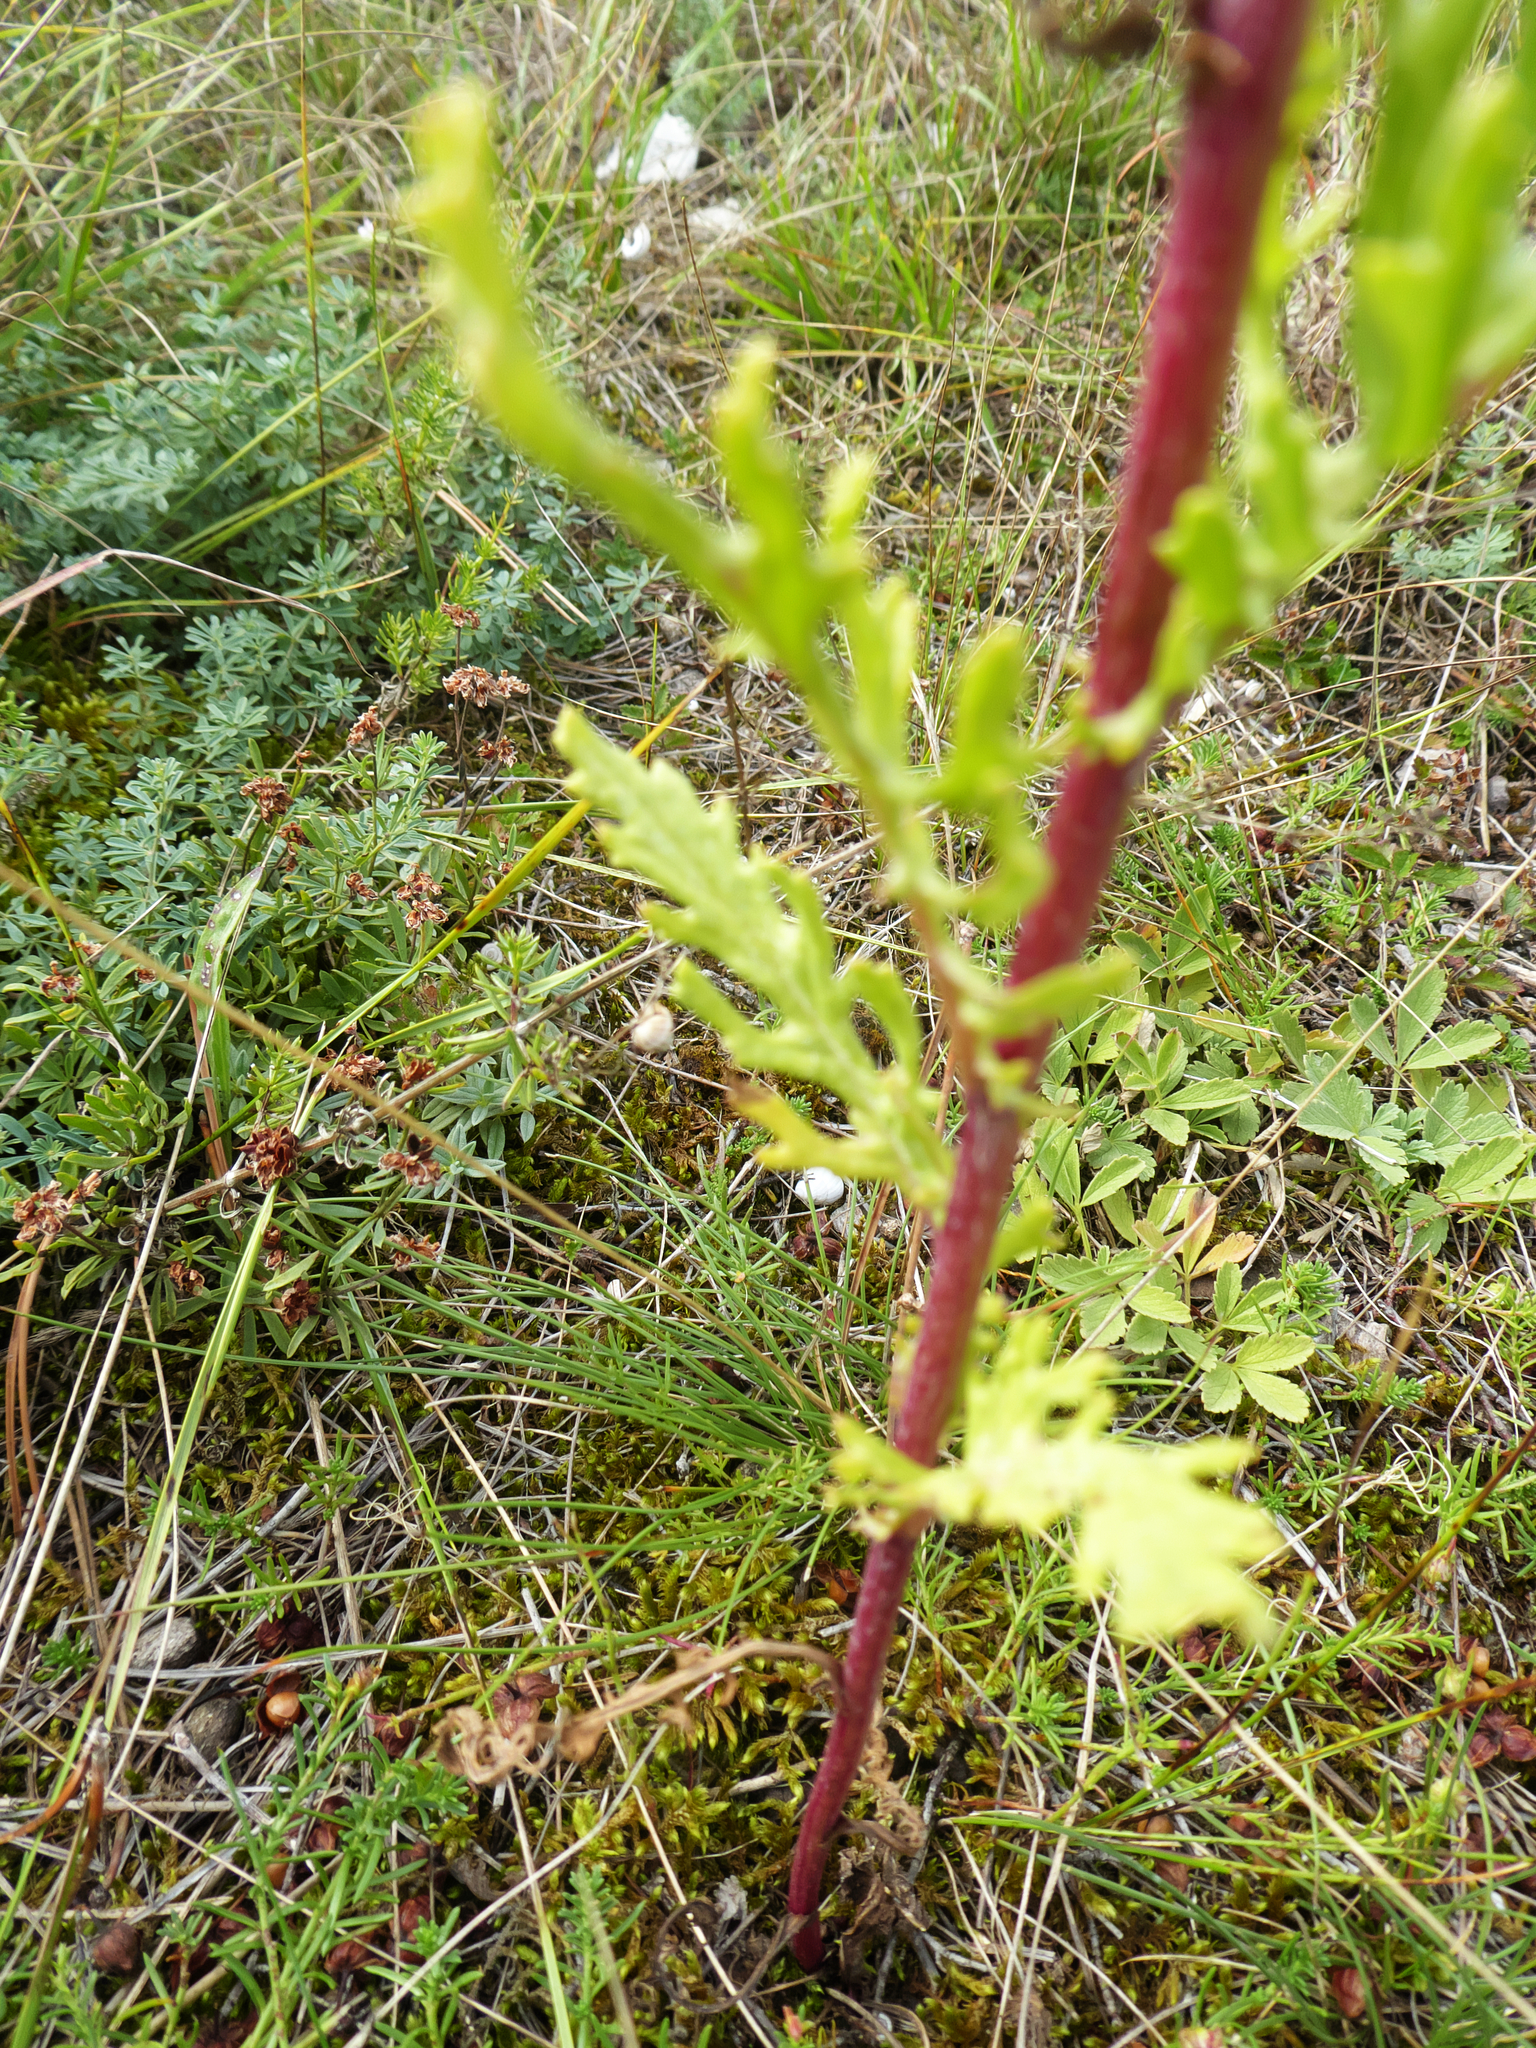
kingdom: Plantae
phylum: Tracheophyta
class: Magnoliopsida
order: Asterales
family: Asteraceae
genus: Jacobaea
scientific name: Jacobaea vulgaris
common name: Stinking willie
